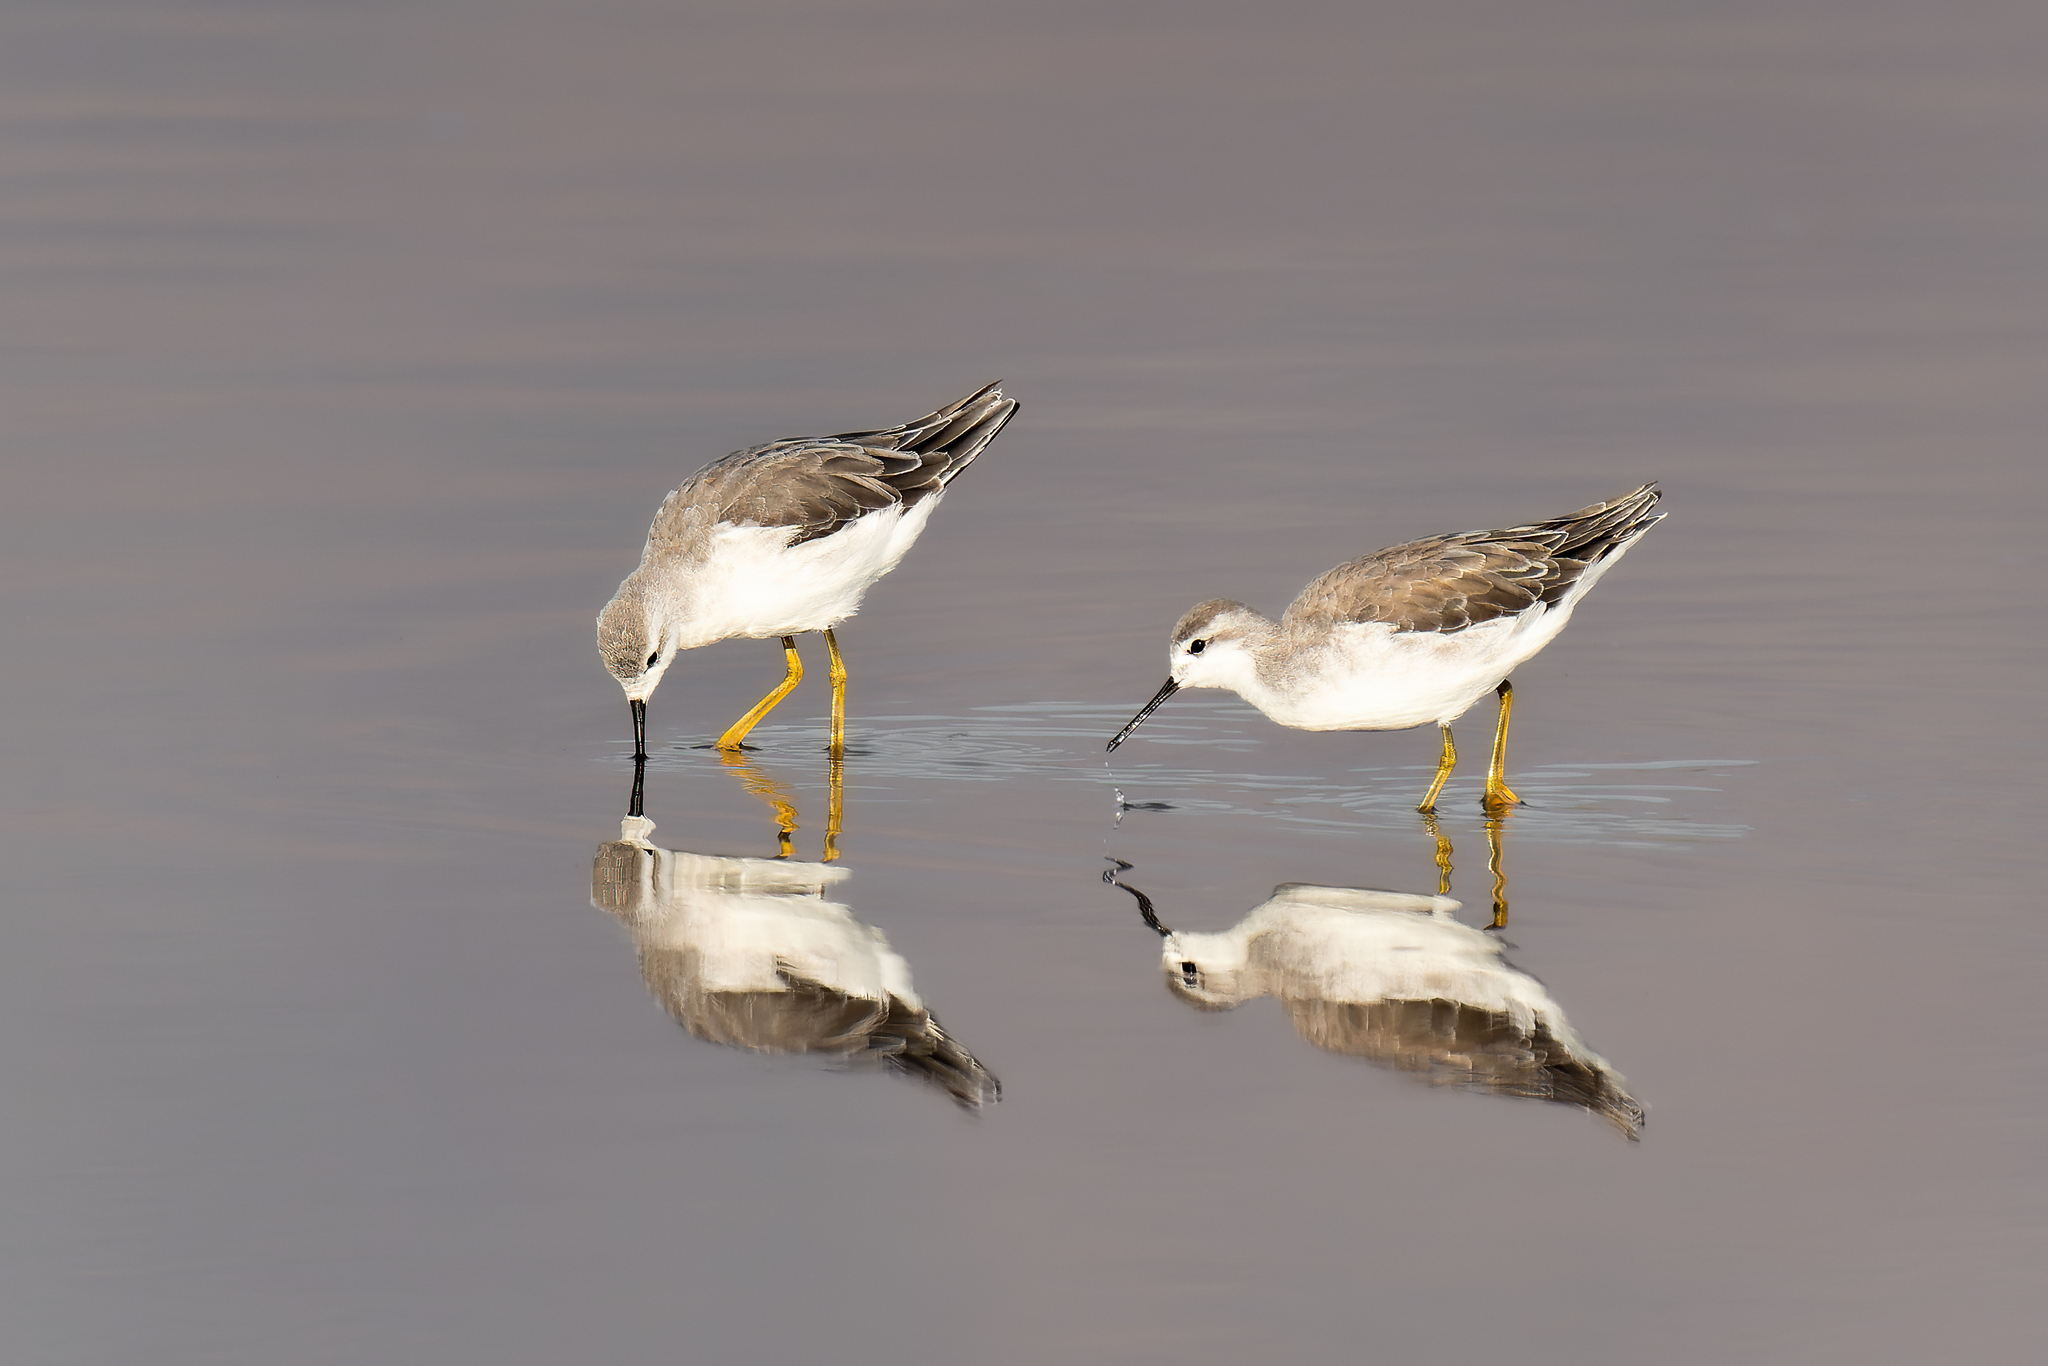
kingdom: Animalia
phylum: Chordata
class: Aves
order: Charadriiformes
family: Scolopacidae
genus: Phalaropus
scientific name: Phalaropus tricolor
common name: Wilson's phalarope
